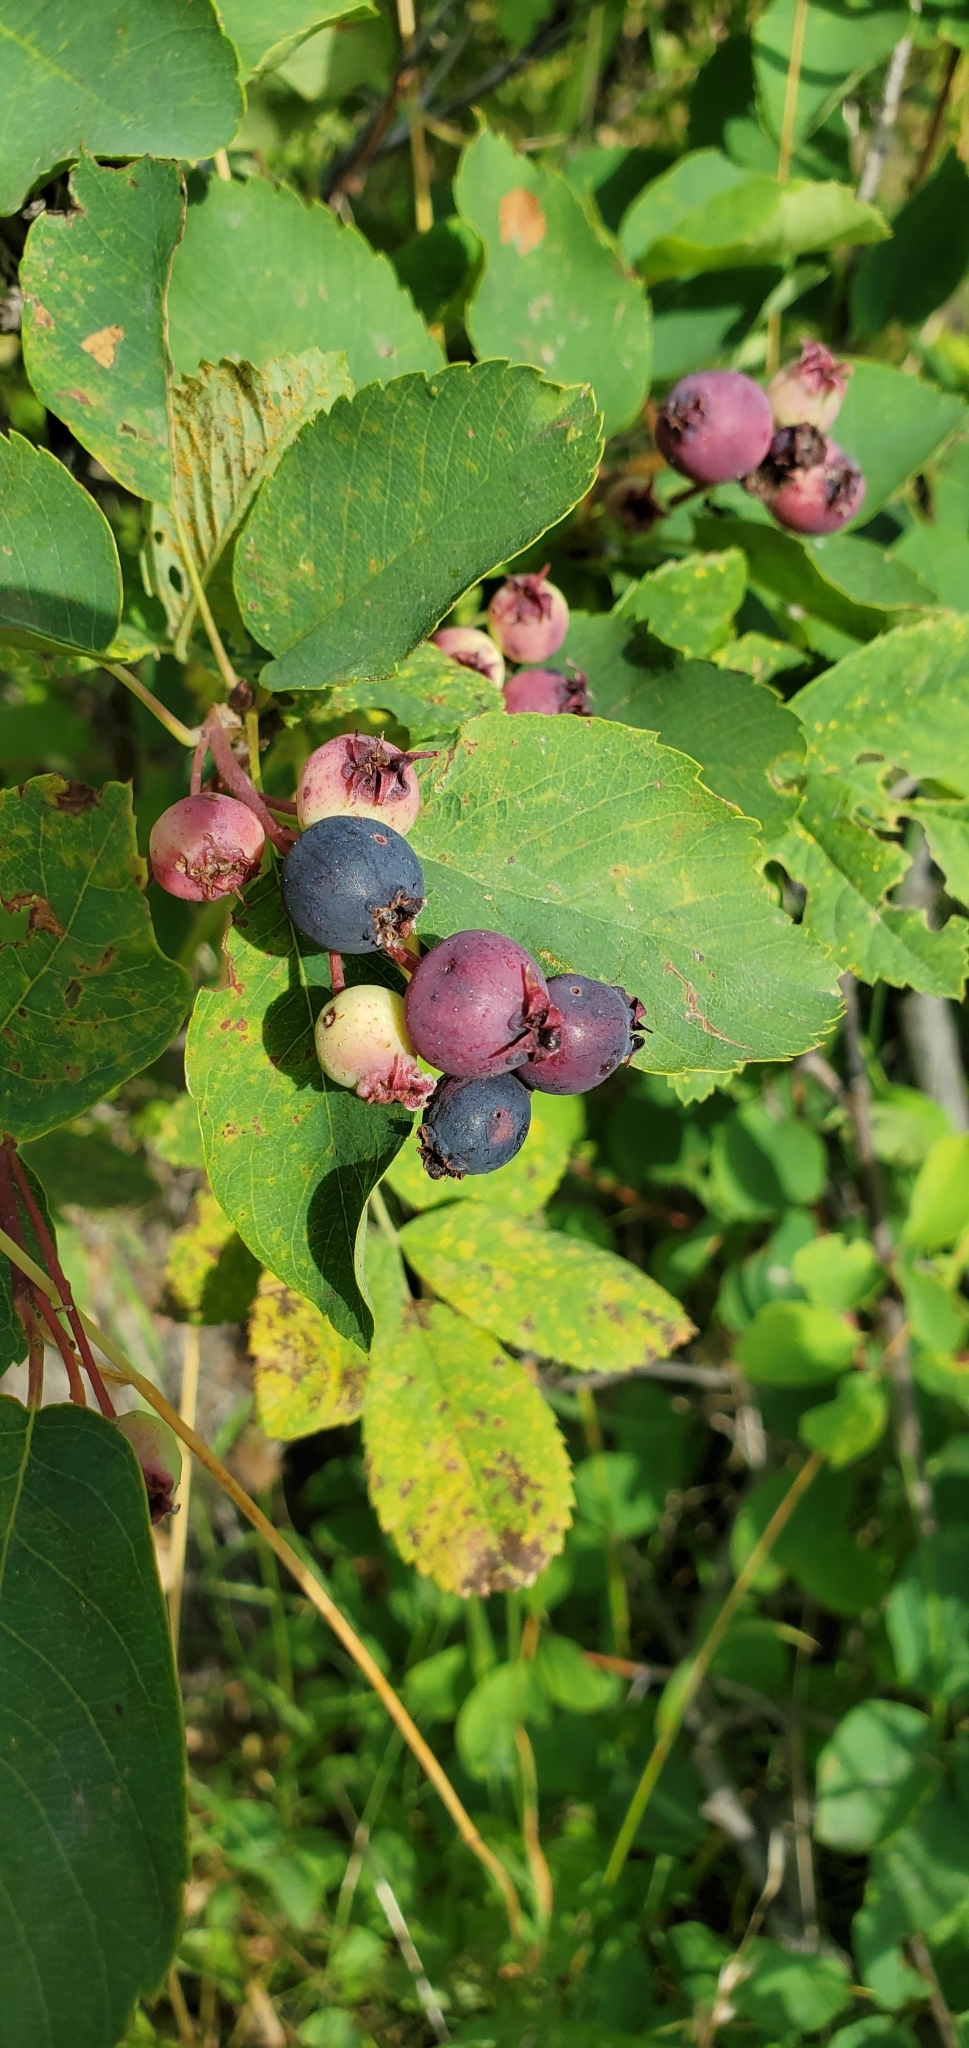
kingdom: Plantae
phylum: Tracheophyta
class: Magnoliopsida
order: Rosales
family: Rosaceae
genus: Amelanchier
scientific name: Amelanchier alnifolia
